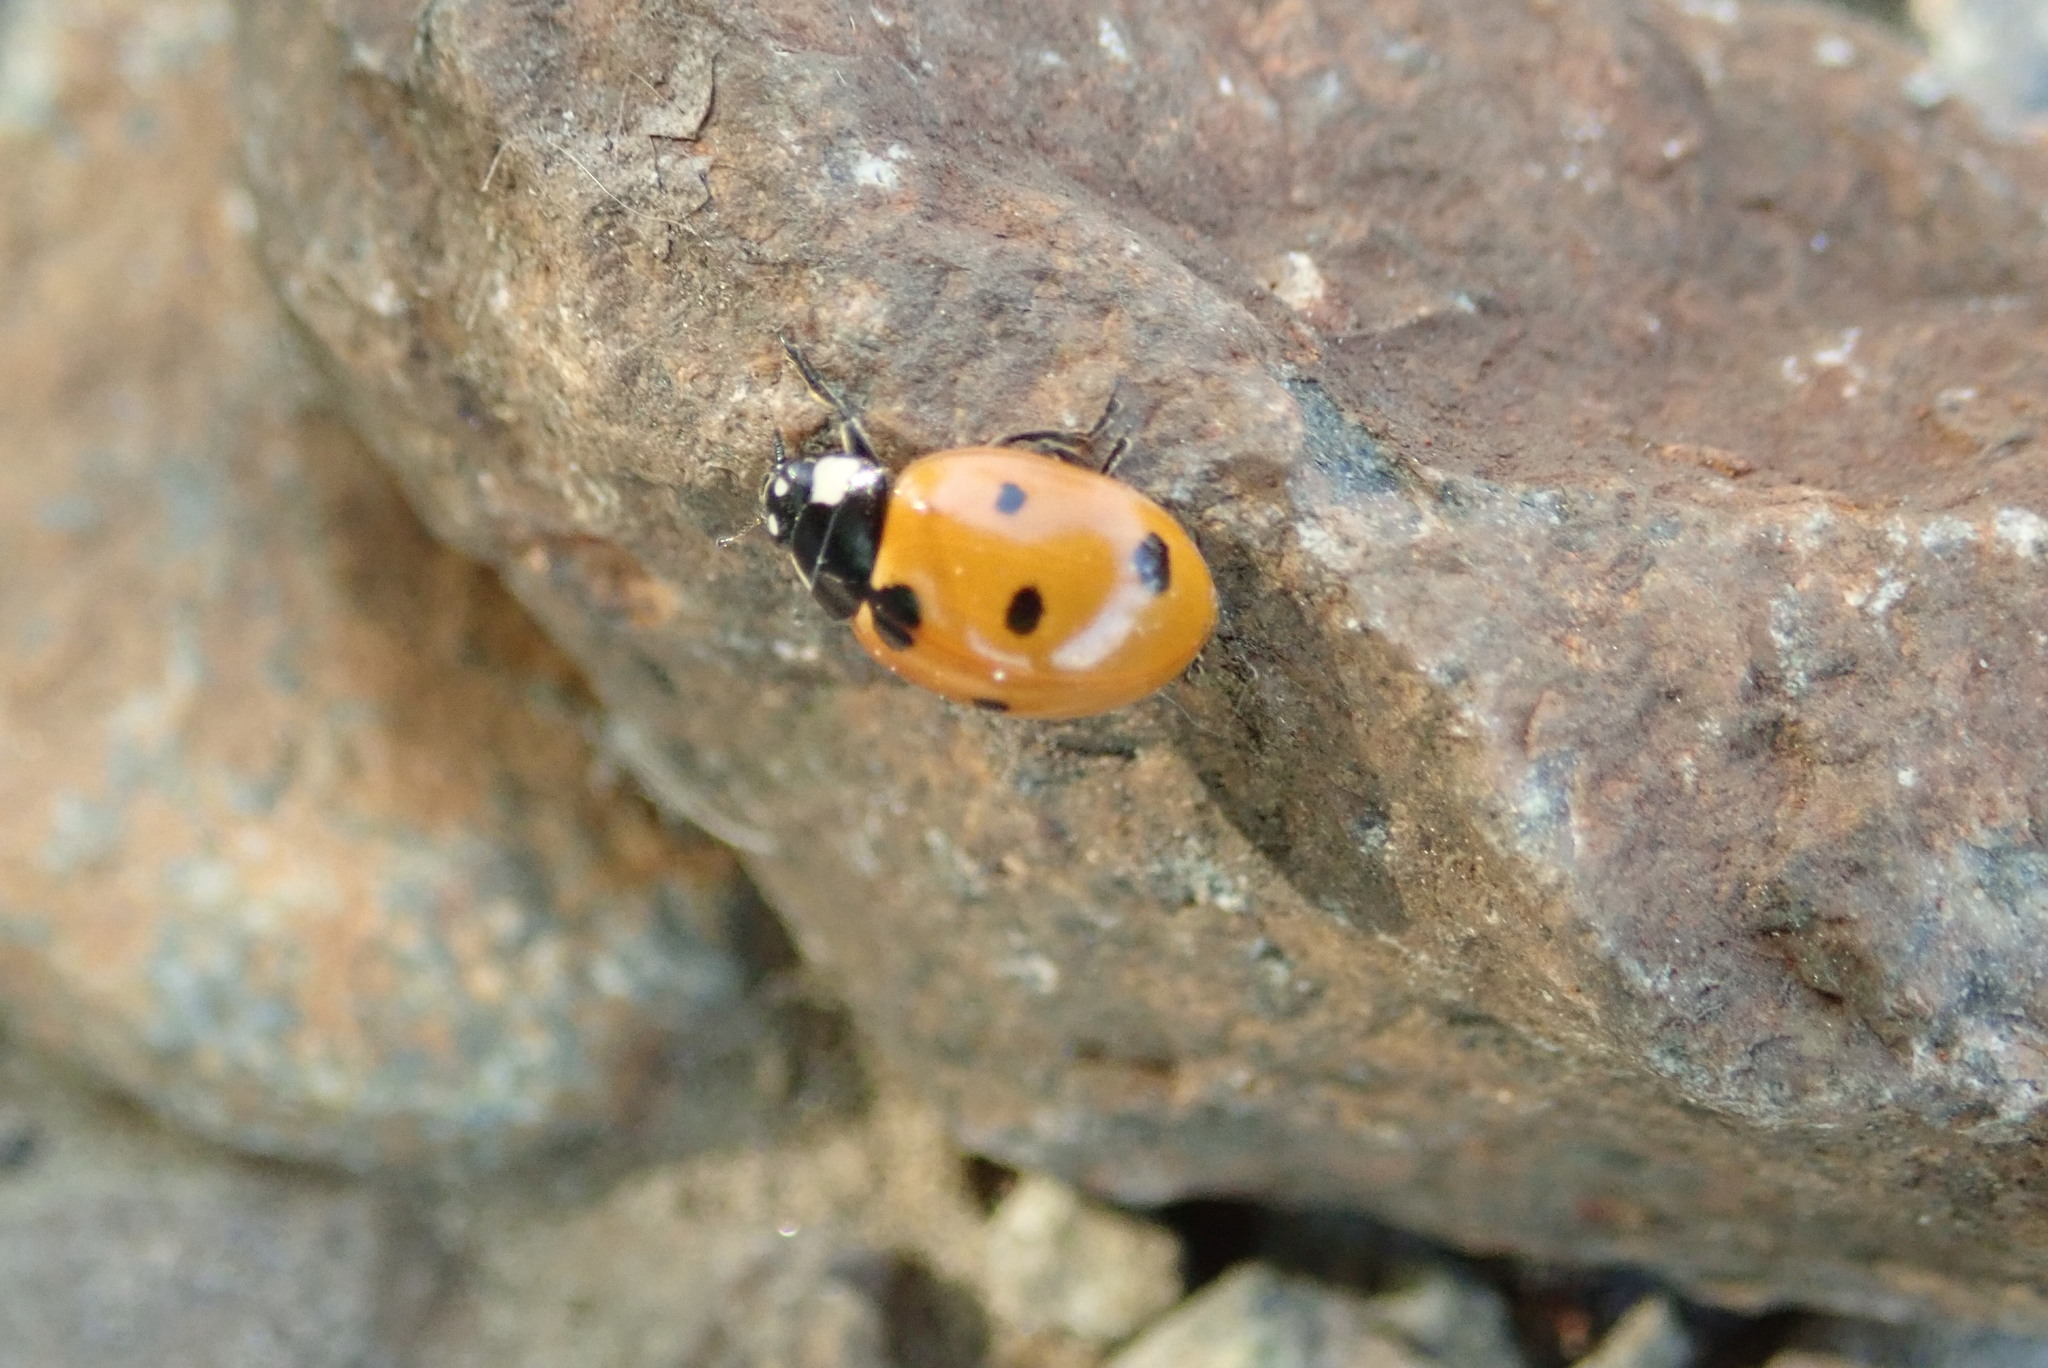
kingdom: Animalia
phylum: Arthropoda
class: Insecta
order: Coleoptera
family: Coccinellidae
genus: Coccinella
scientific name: Coccinella septempunctata
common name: Sevenspotted lady beetle
